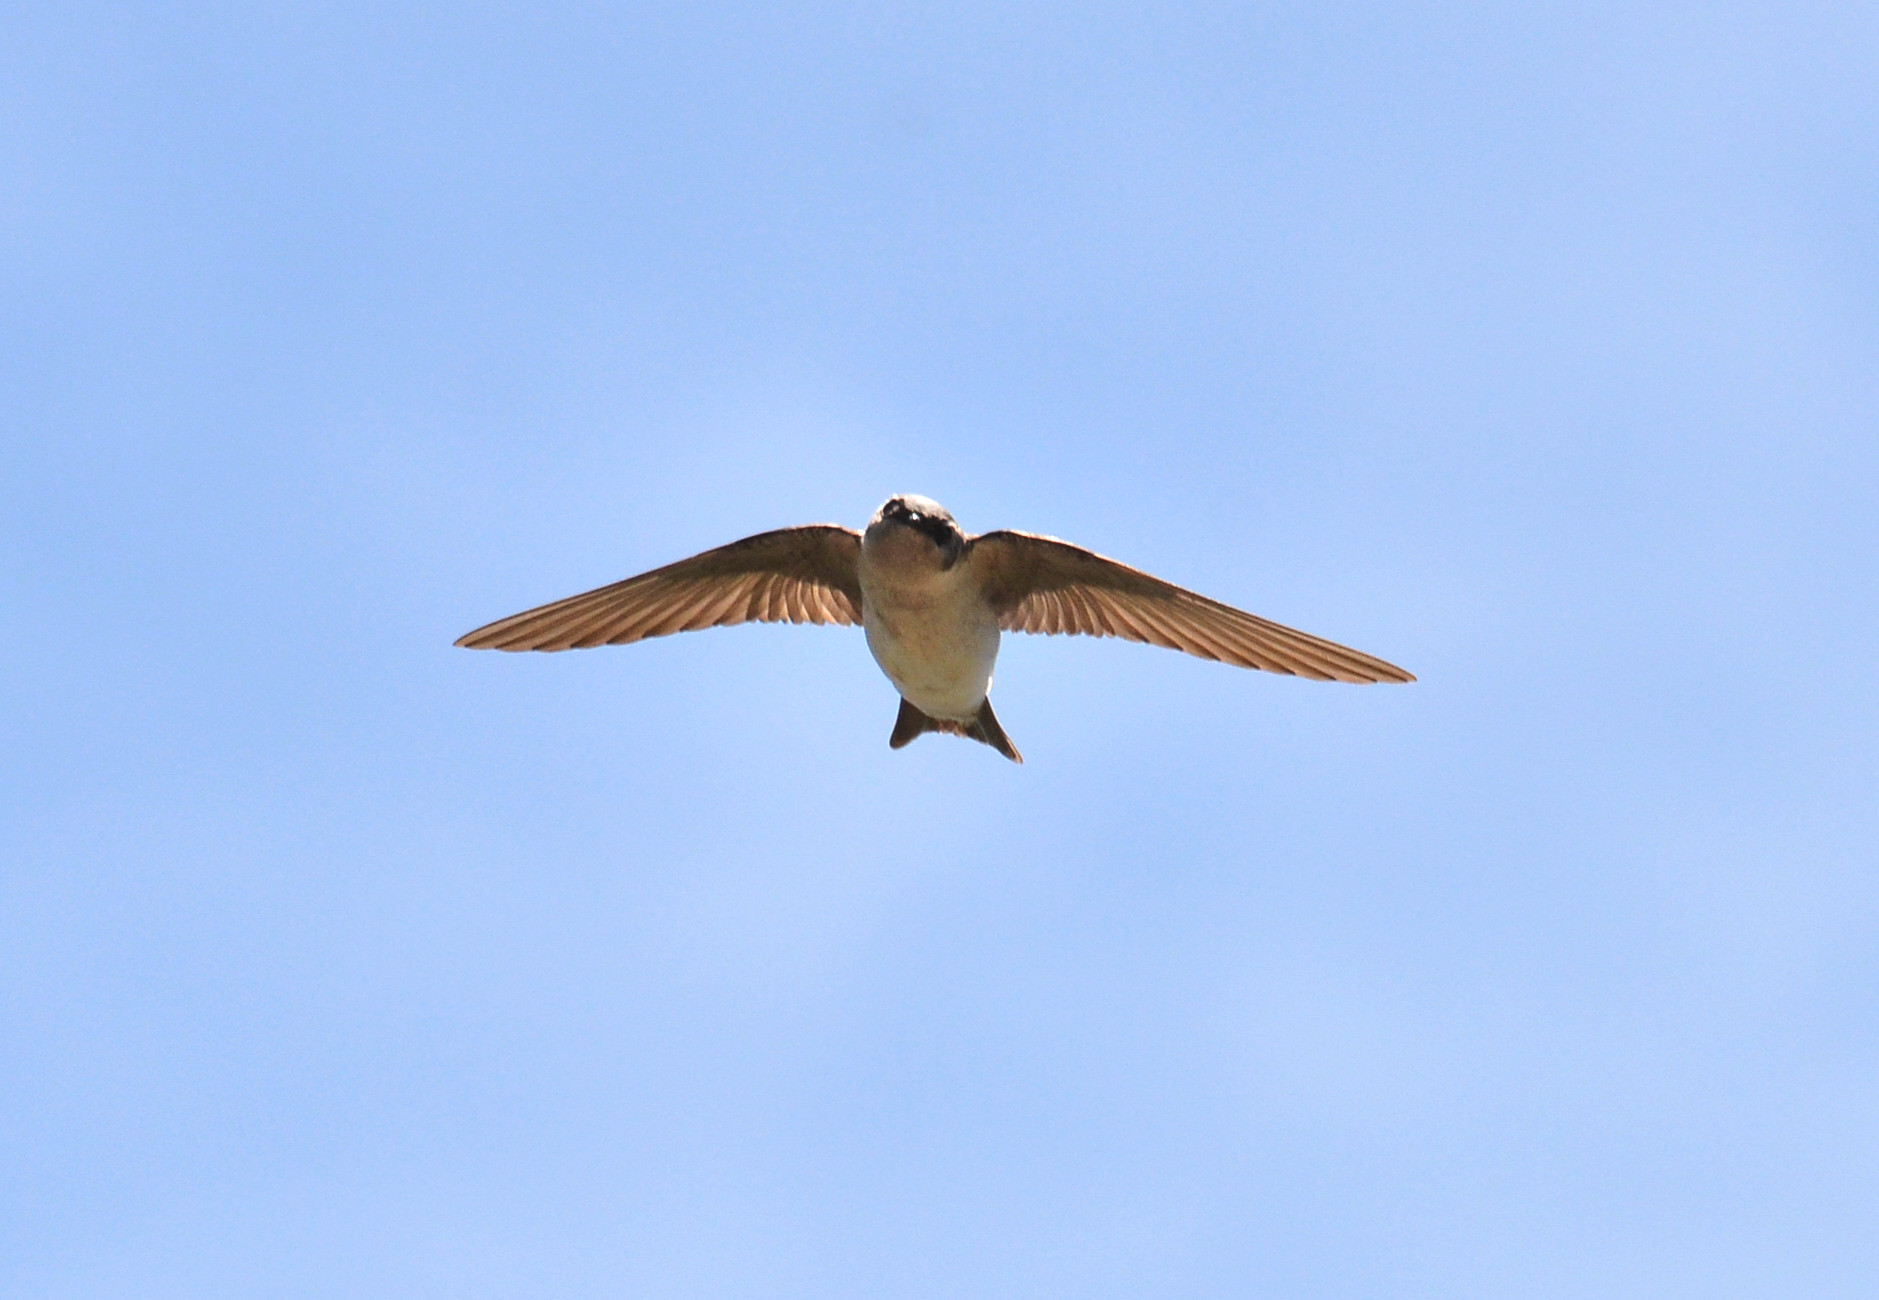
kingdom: Animalia
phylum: Chordata
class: Aves
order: Passeriformes
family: Hirundinidae
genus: Tachycineta
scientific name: Tachycineta thalassina
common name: Violet-green swallow
